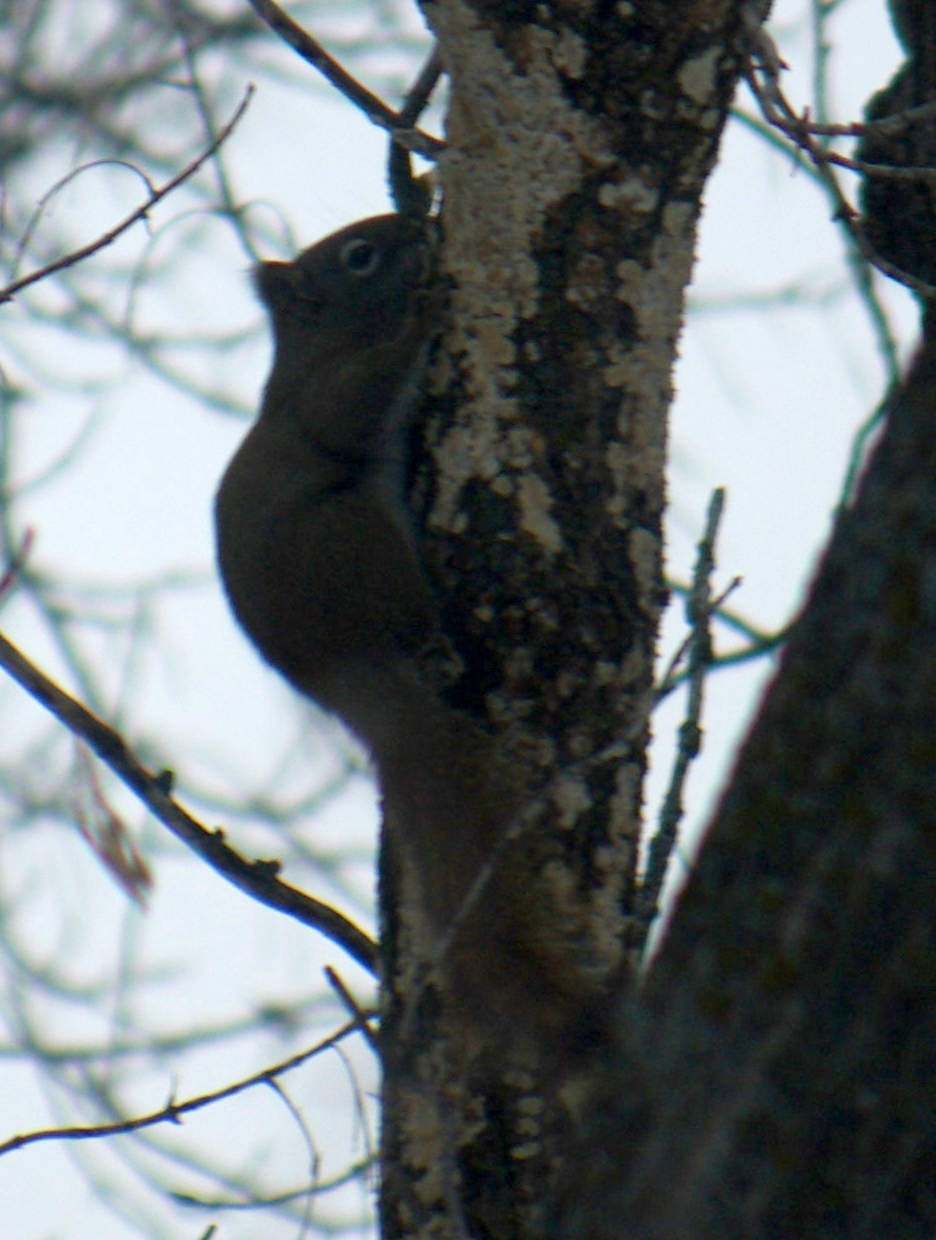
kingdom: Animalia
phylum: Chordata
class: Mammalia
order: Rodentia
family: Sciuridae
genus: Tamiasciurus
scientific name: Tamiasciurus hudsonicus
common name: Red squirrel
